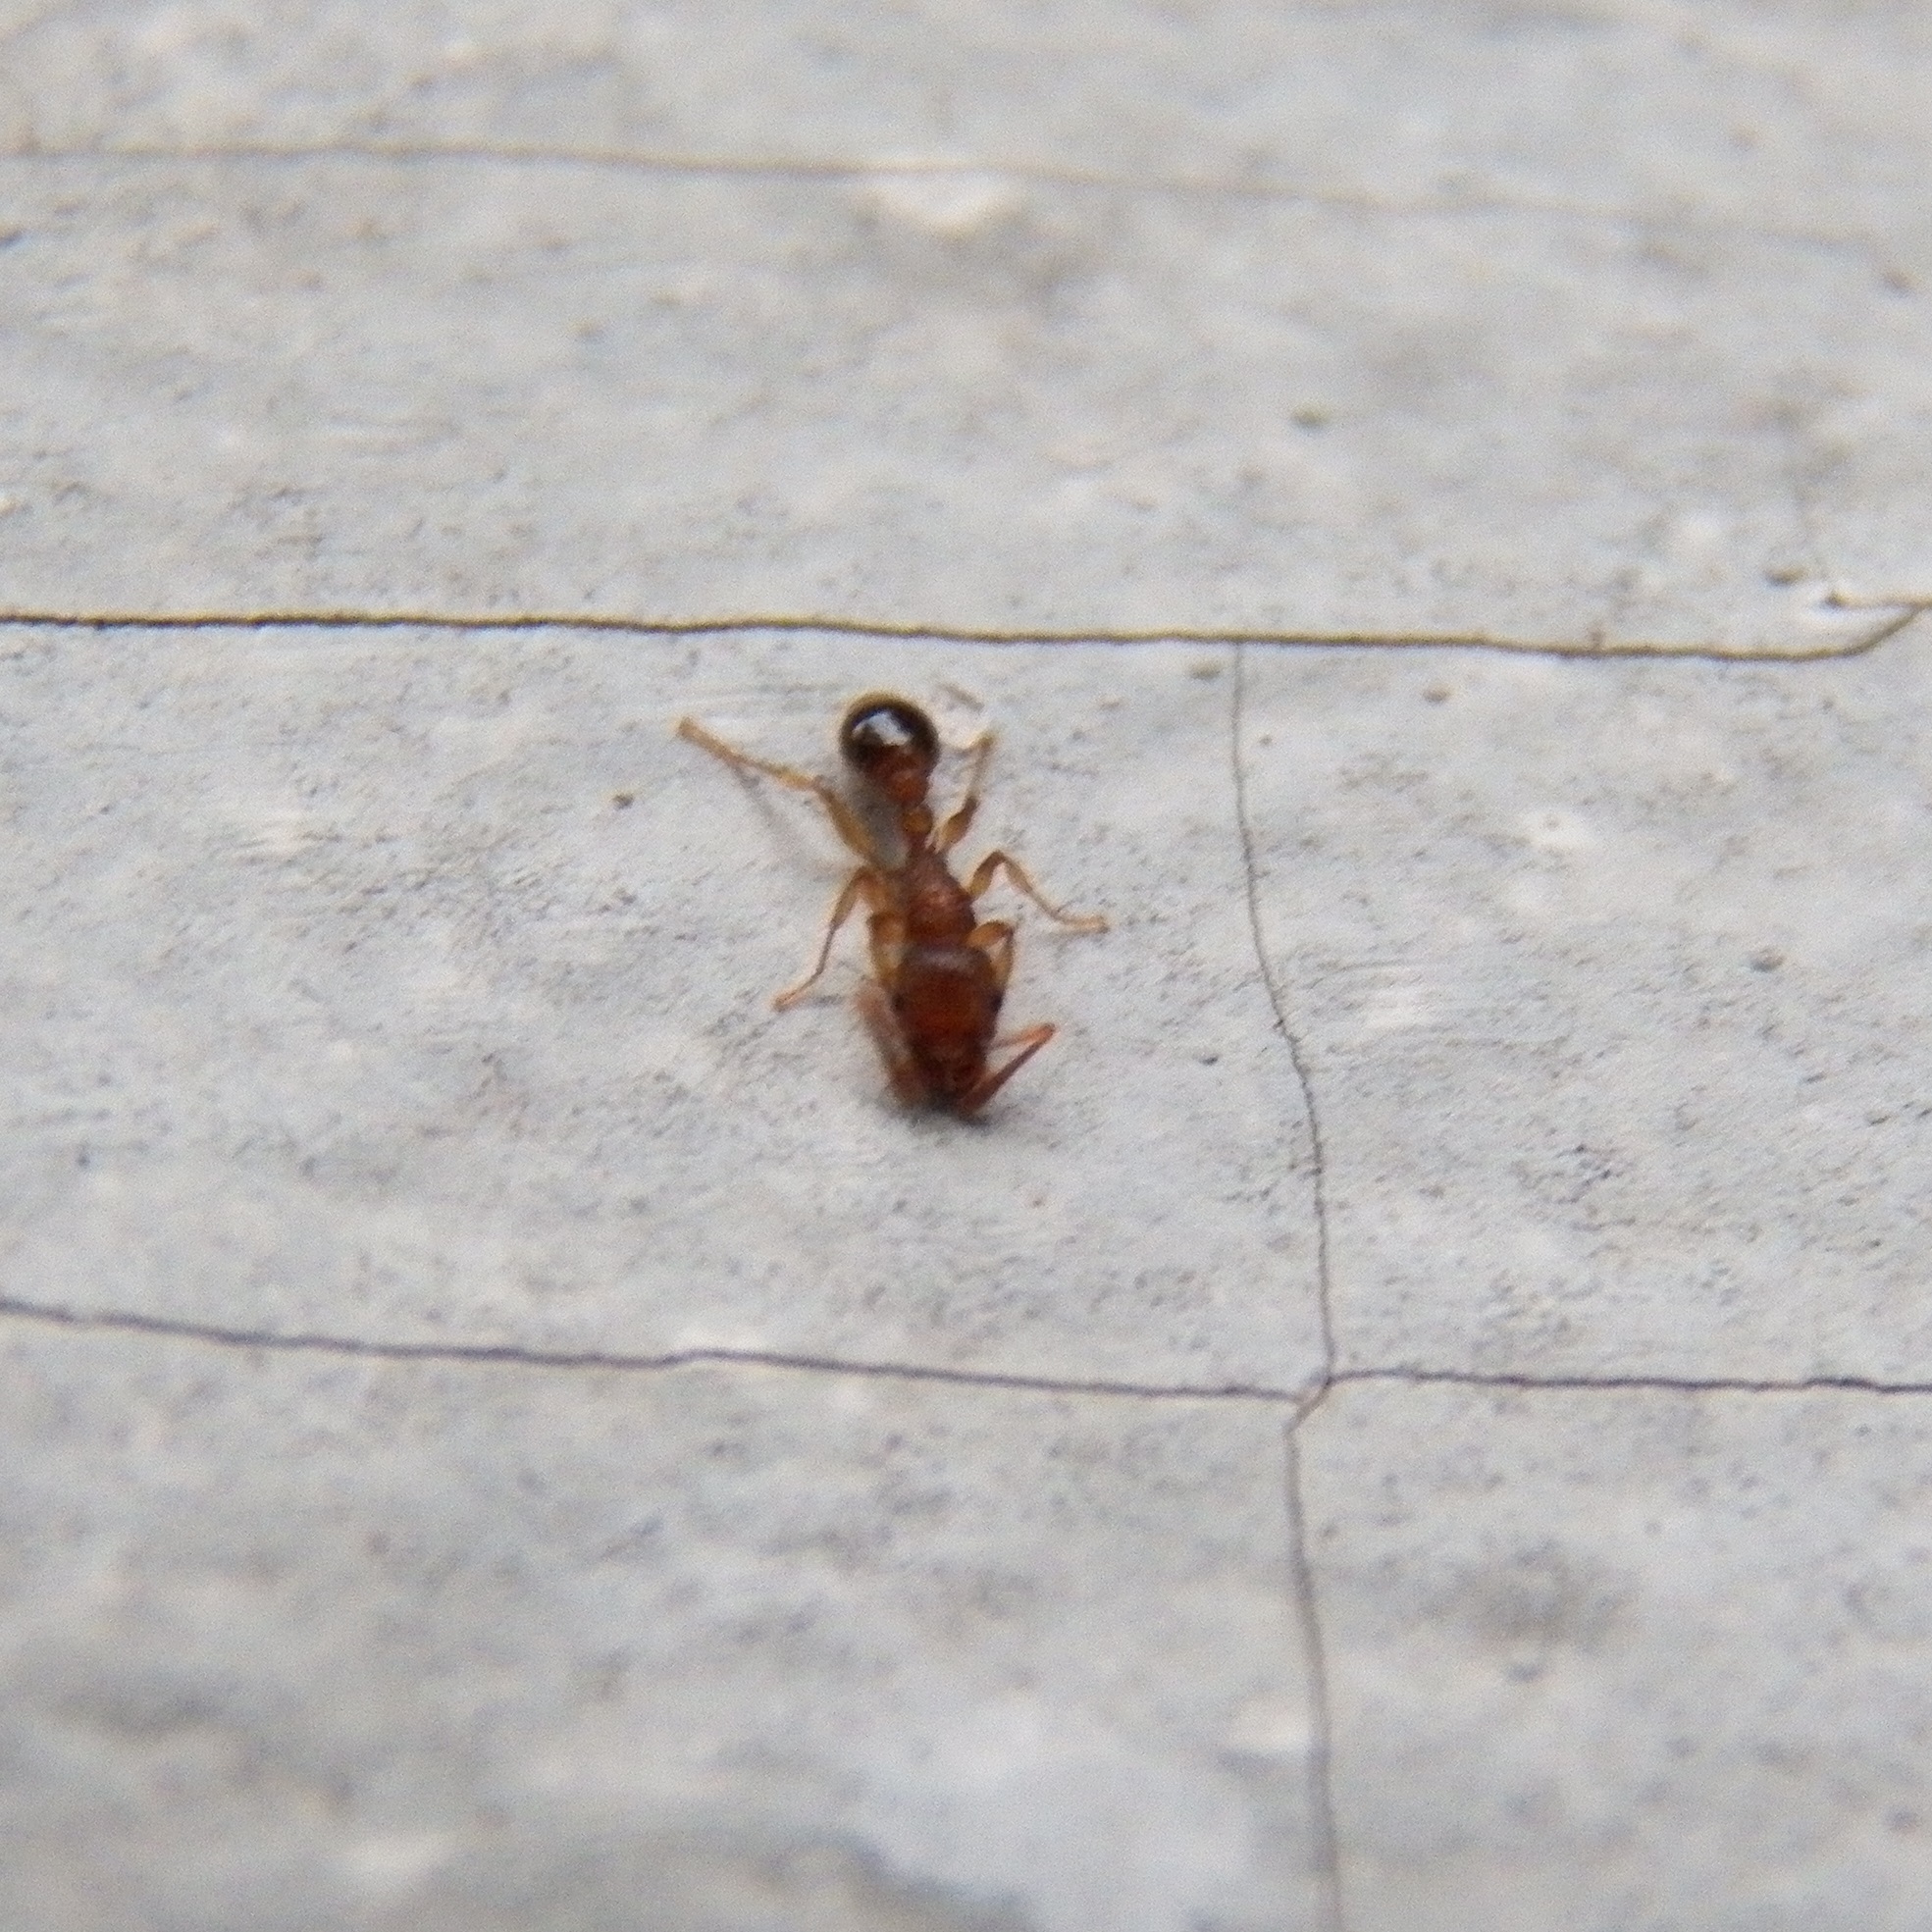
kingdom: Animalia
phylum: Arthropoda
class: Insecta
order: Hymenoptera
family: Formicidae
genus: Tetramorium
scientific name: Tetramorium bicarinatum
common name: Guinea ant
